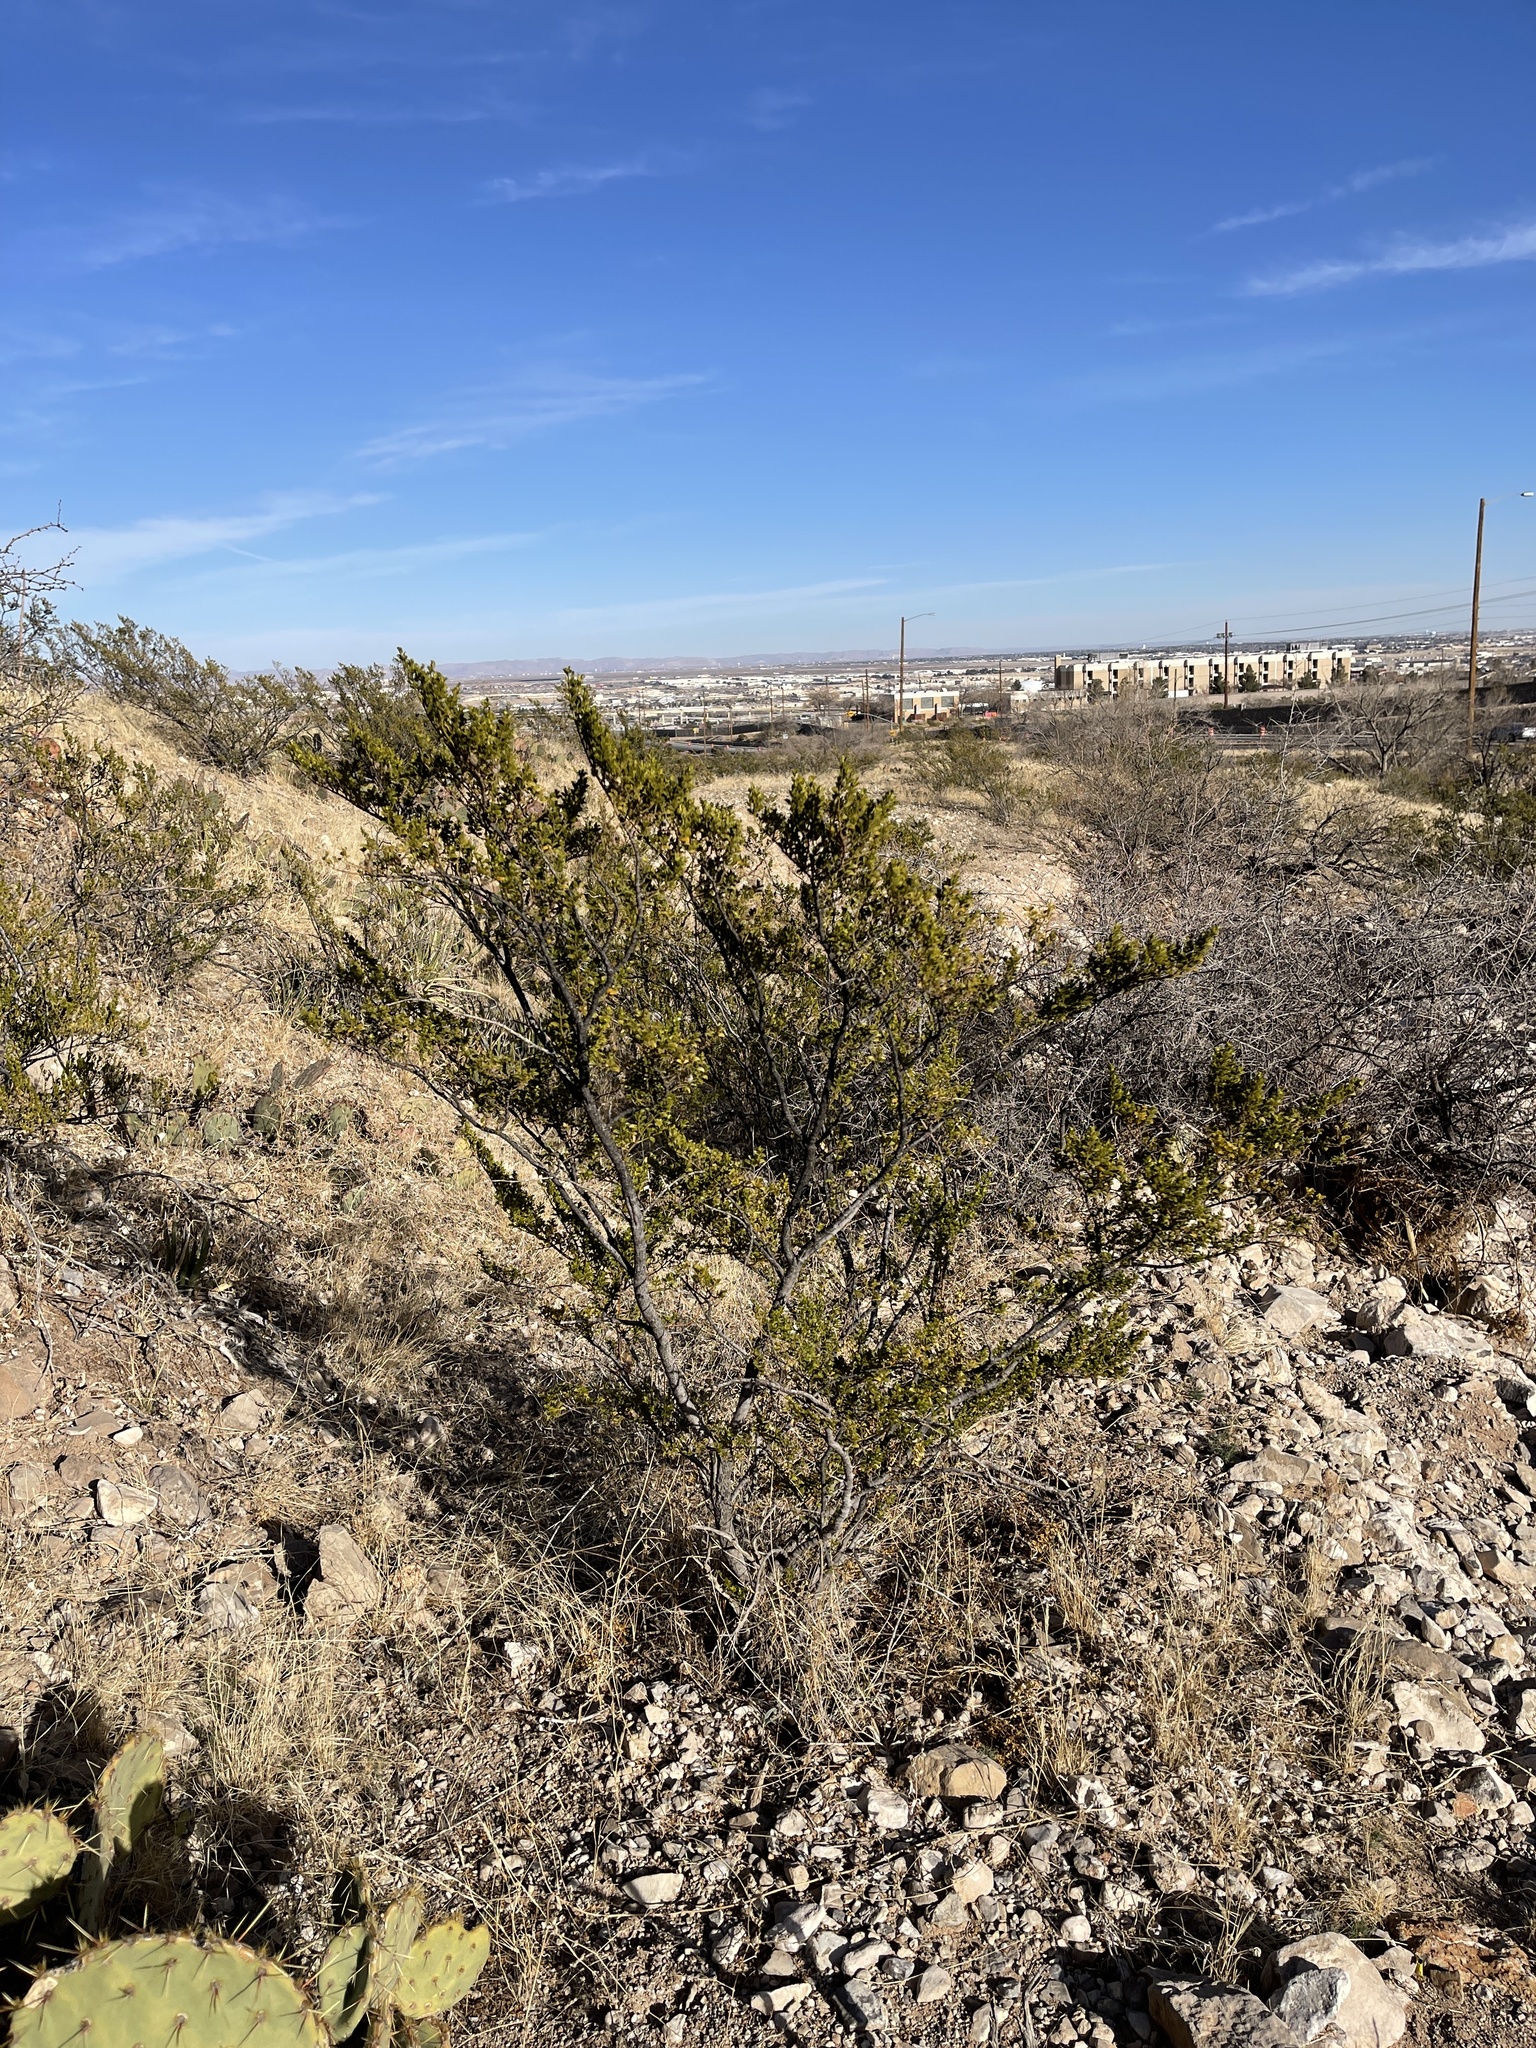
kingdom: Plantae
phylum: Tracheophyta
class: Magnoliopsida
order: Zygophyllales
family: Zygophyllaceae
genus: Larrea
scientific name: Larrea tridentata
